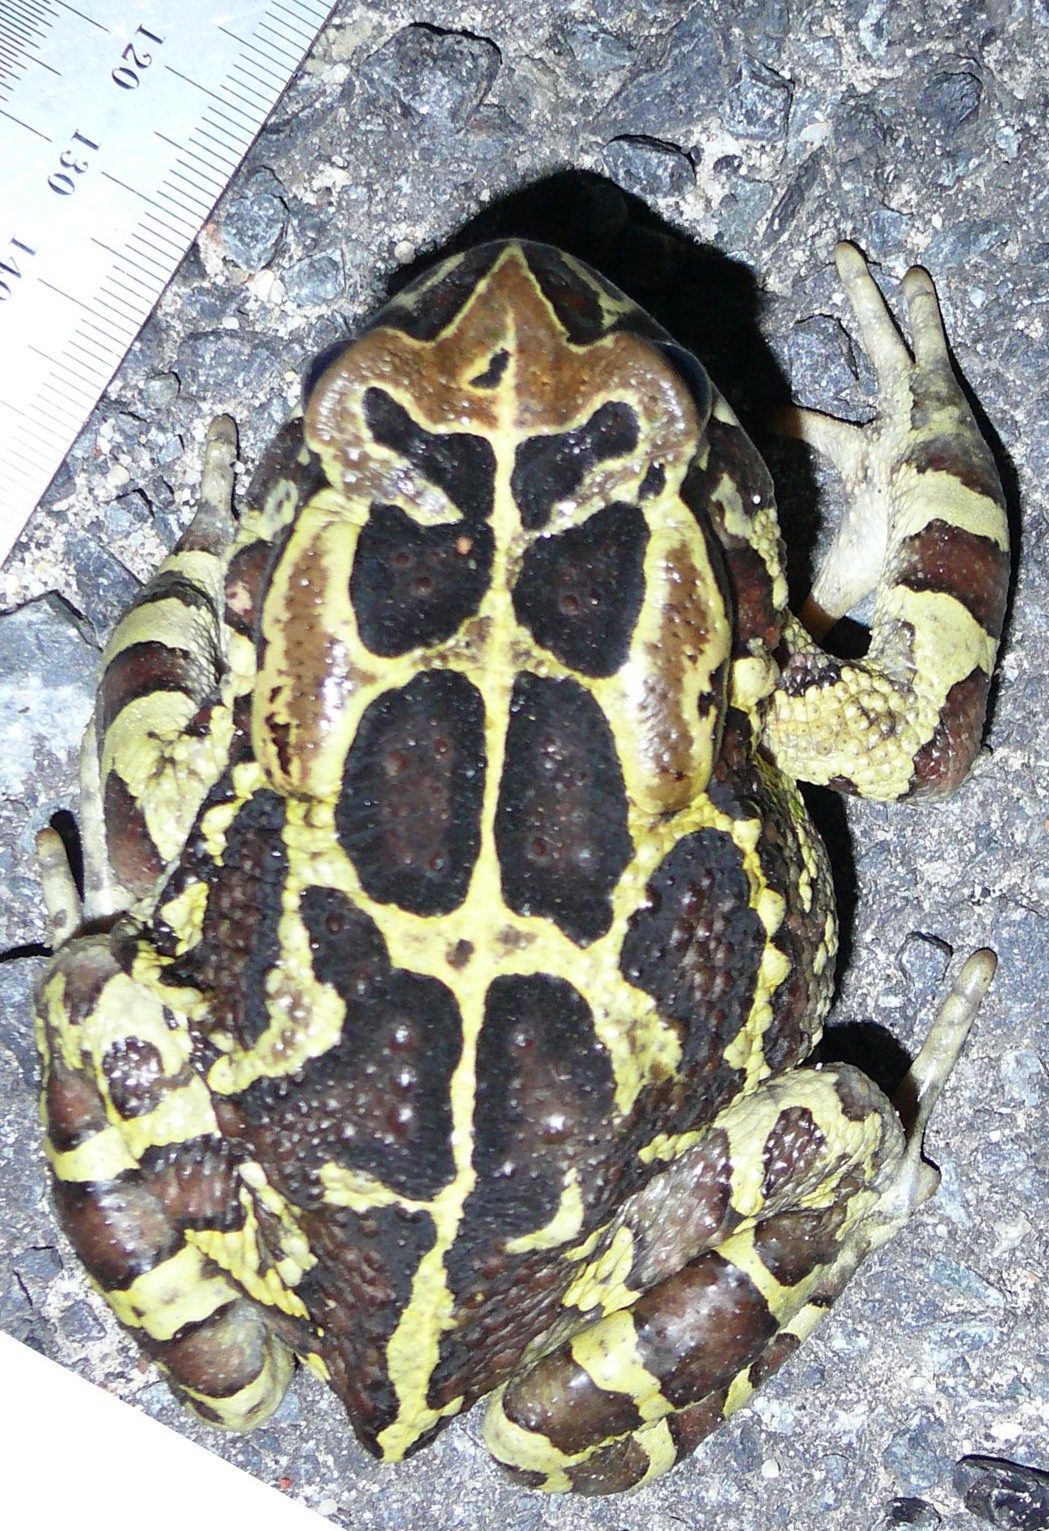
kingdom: Animalia
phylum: Chordata
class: Amphibia
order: Anura
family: Bufonidae
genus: Sclerophrys
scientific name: Sclerophrys pantherina
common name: Panther toad
